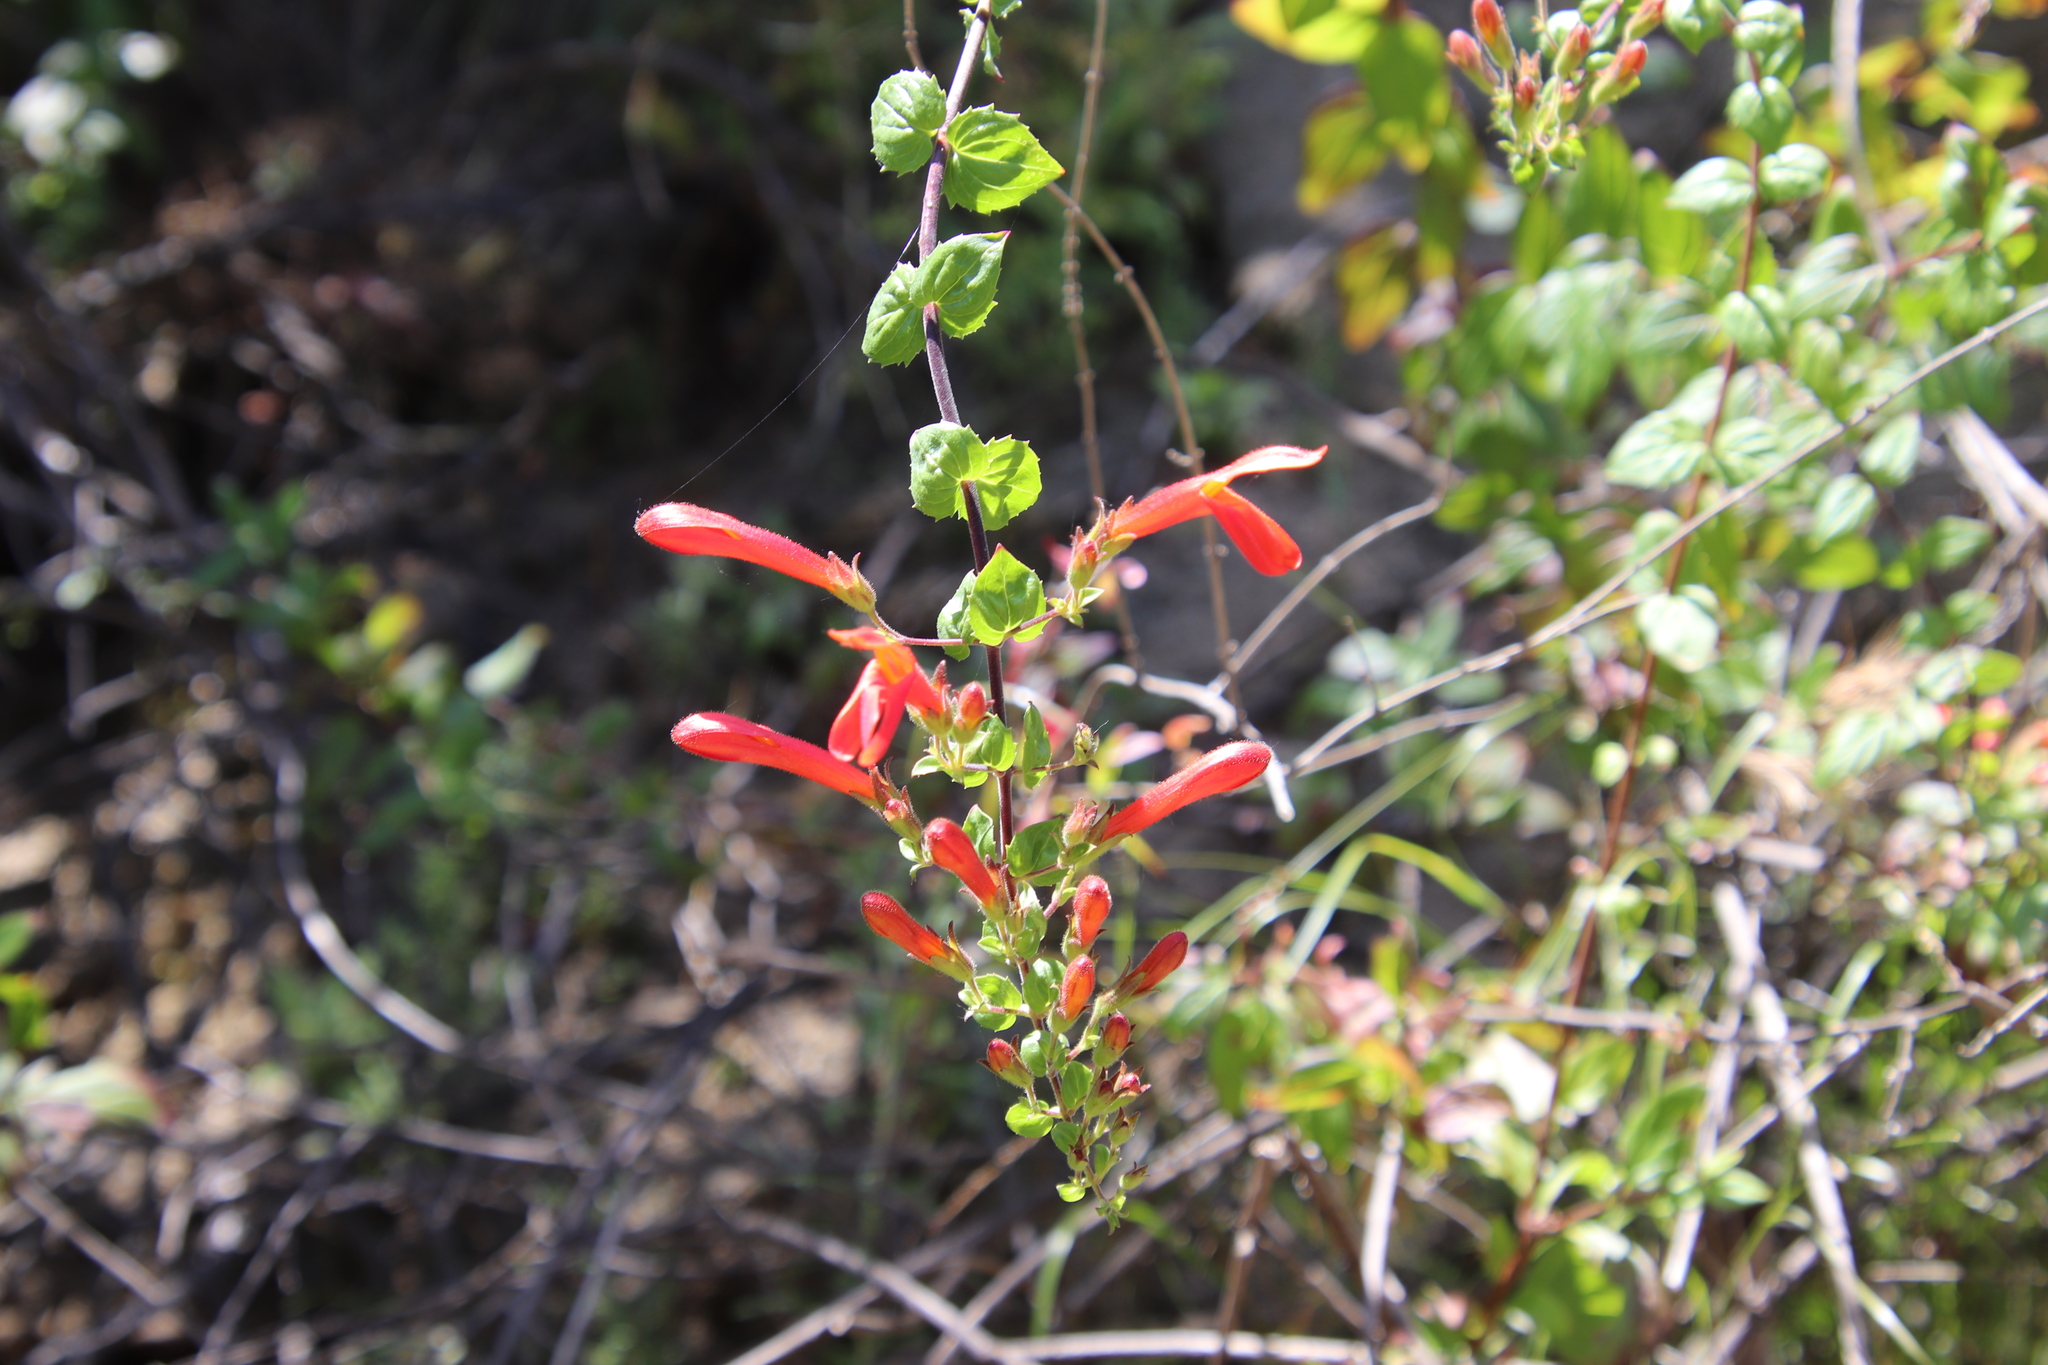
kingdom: Plantae
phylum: Tracheophyta
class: Magnoliopsida
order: Lamiales
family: Plantaginaceae
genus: Keckiella
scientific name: Keckiella cordifolia
